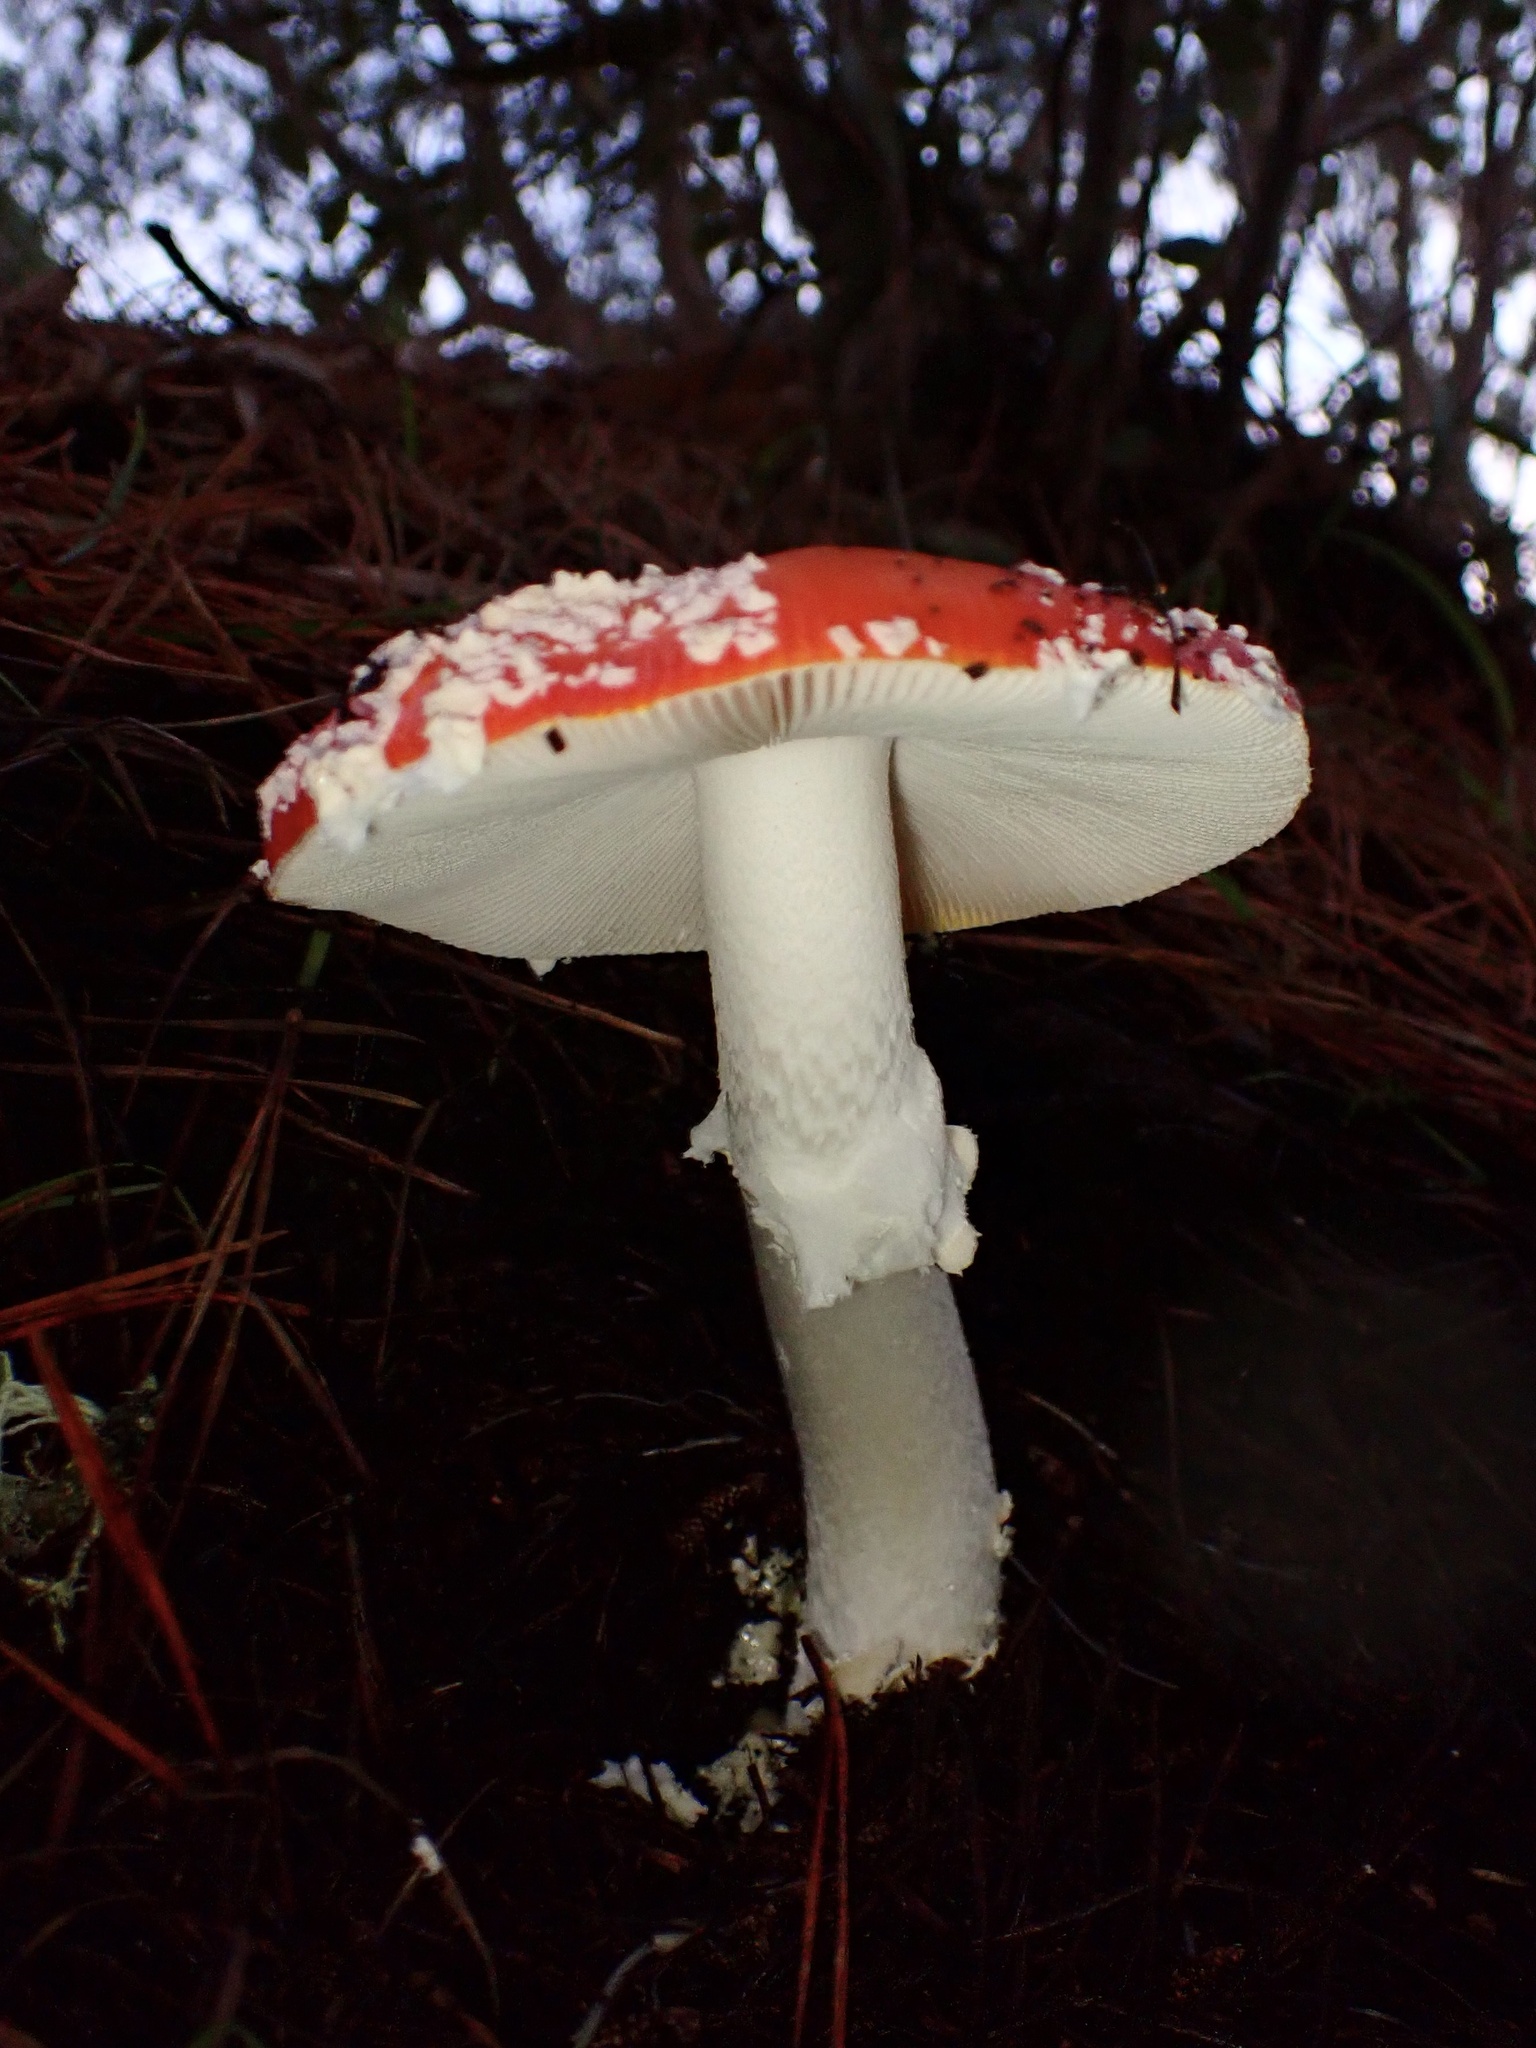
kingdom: Fungi
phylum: Basidiomycota
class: Agaricomycetes
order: Agaricales
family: Amanitaceae
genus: Amanita
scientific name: Amanita muscaria
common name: Fly agaric
